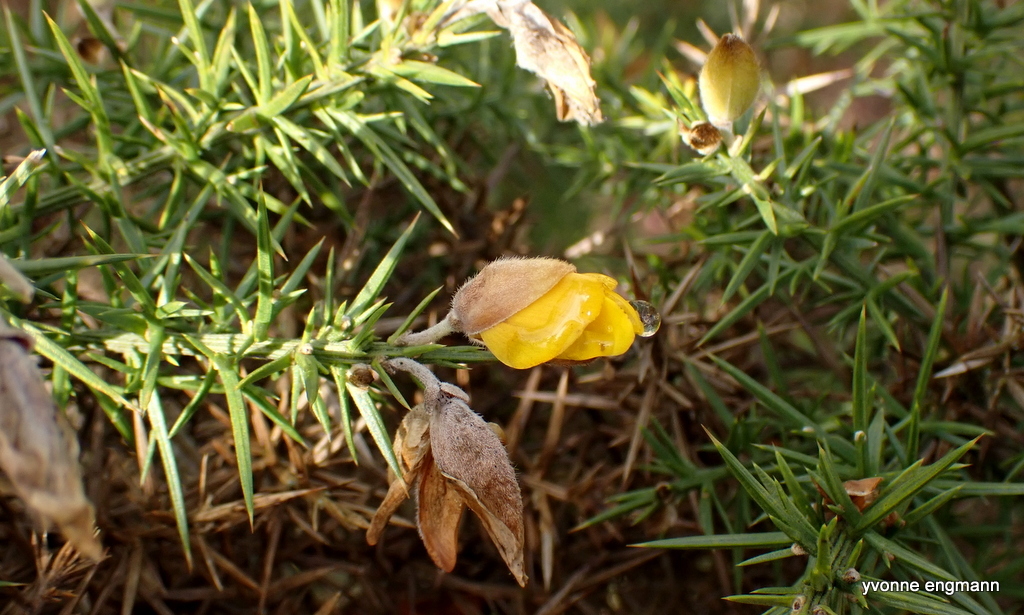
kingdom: Plantae
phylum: Tracheophyta
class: Magnoliopsida
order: Fabales
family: Fabaceae
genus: Ulex
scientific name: Ulex europaeus
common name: Common gorse
